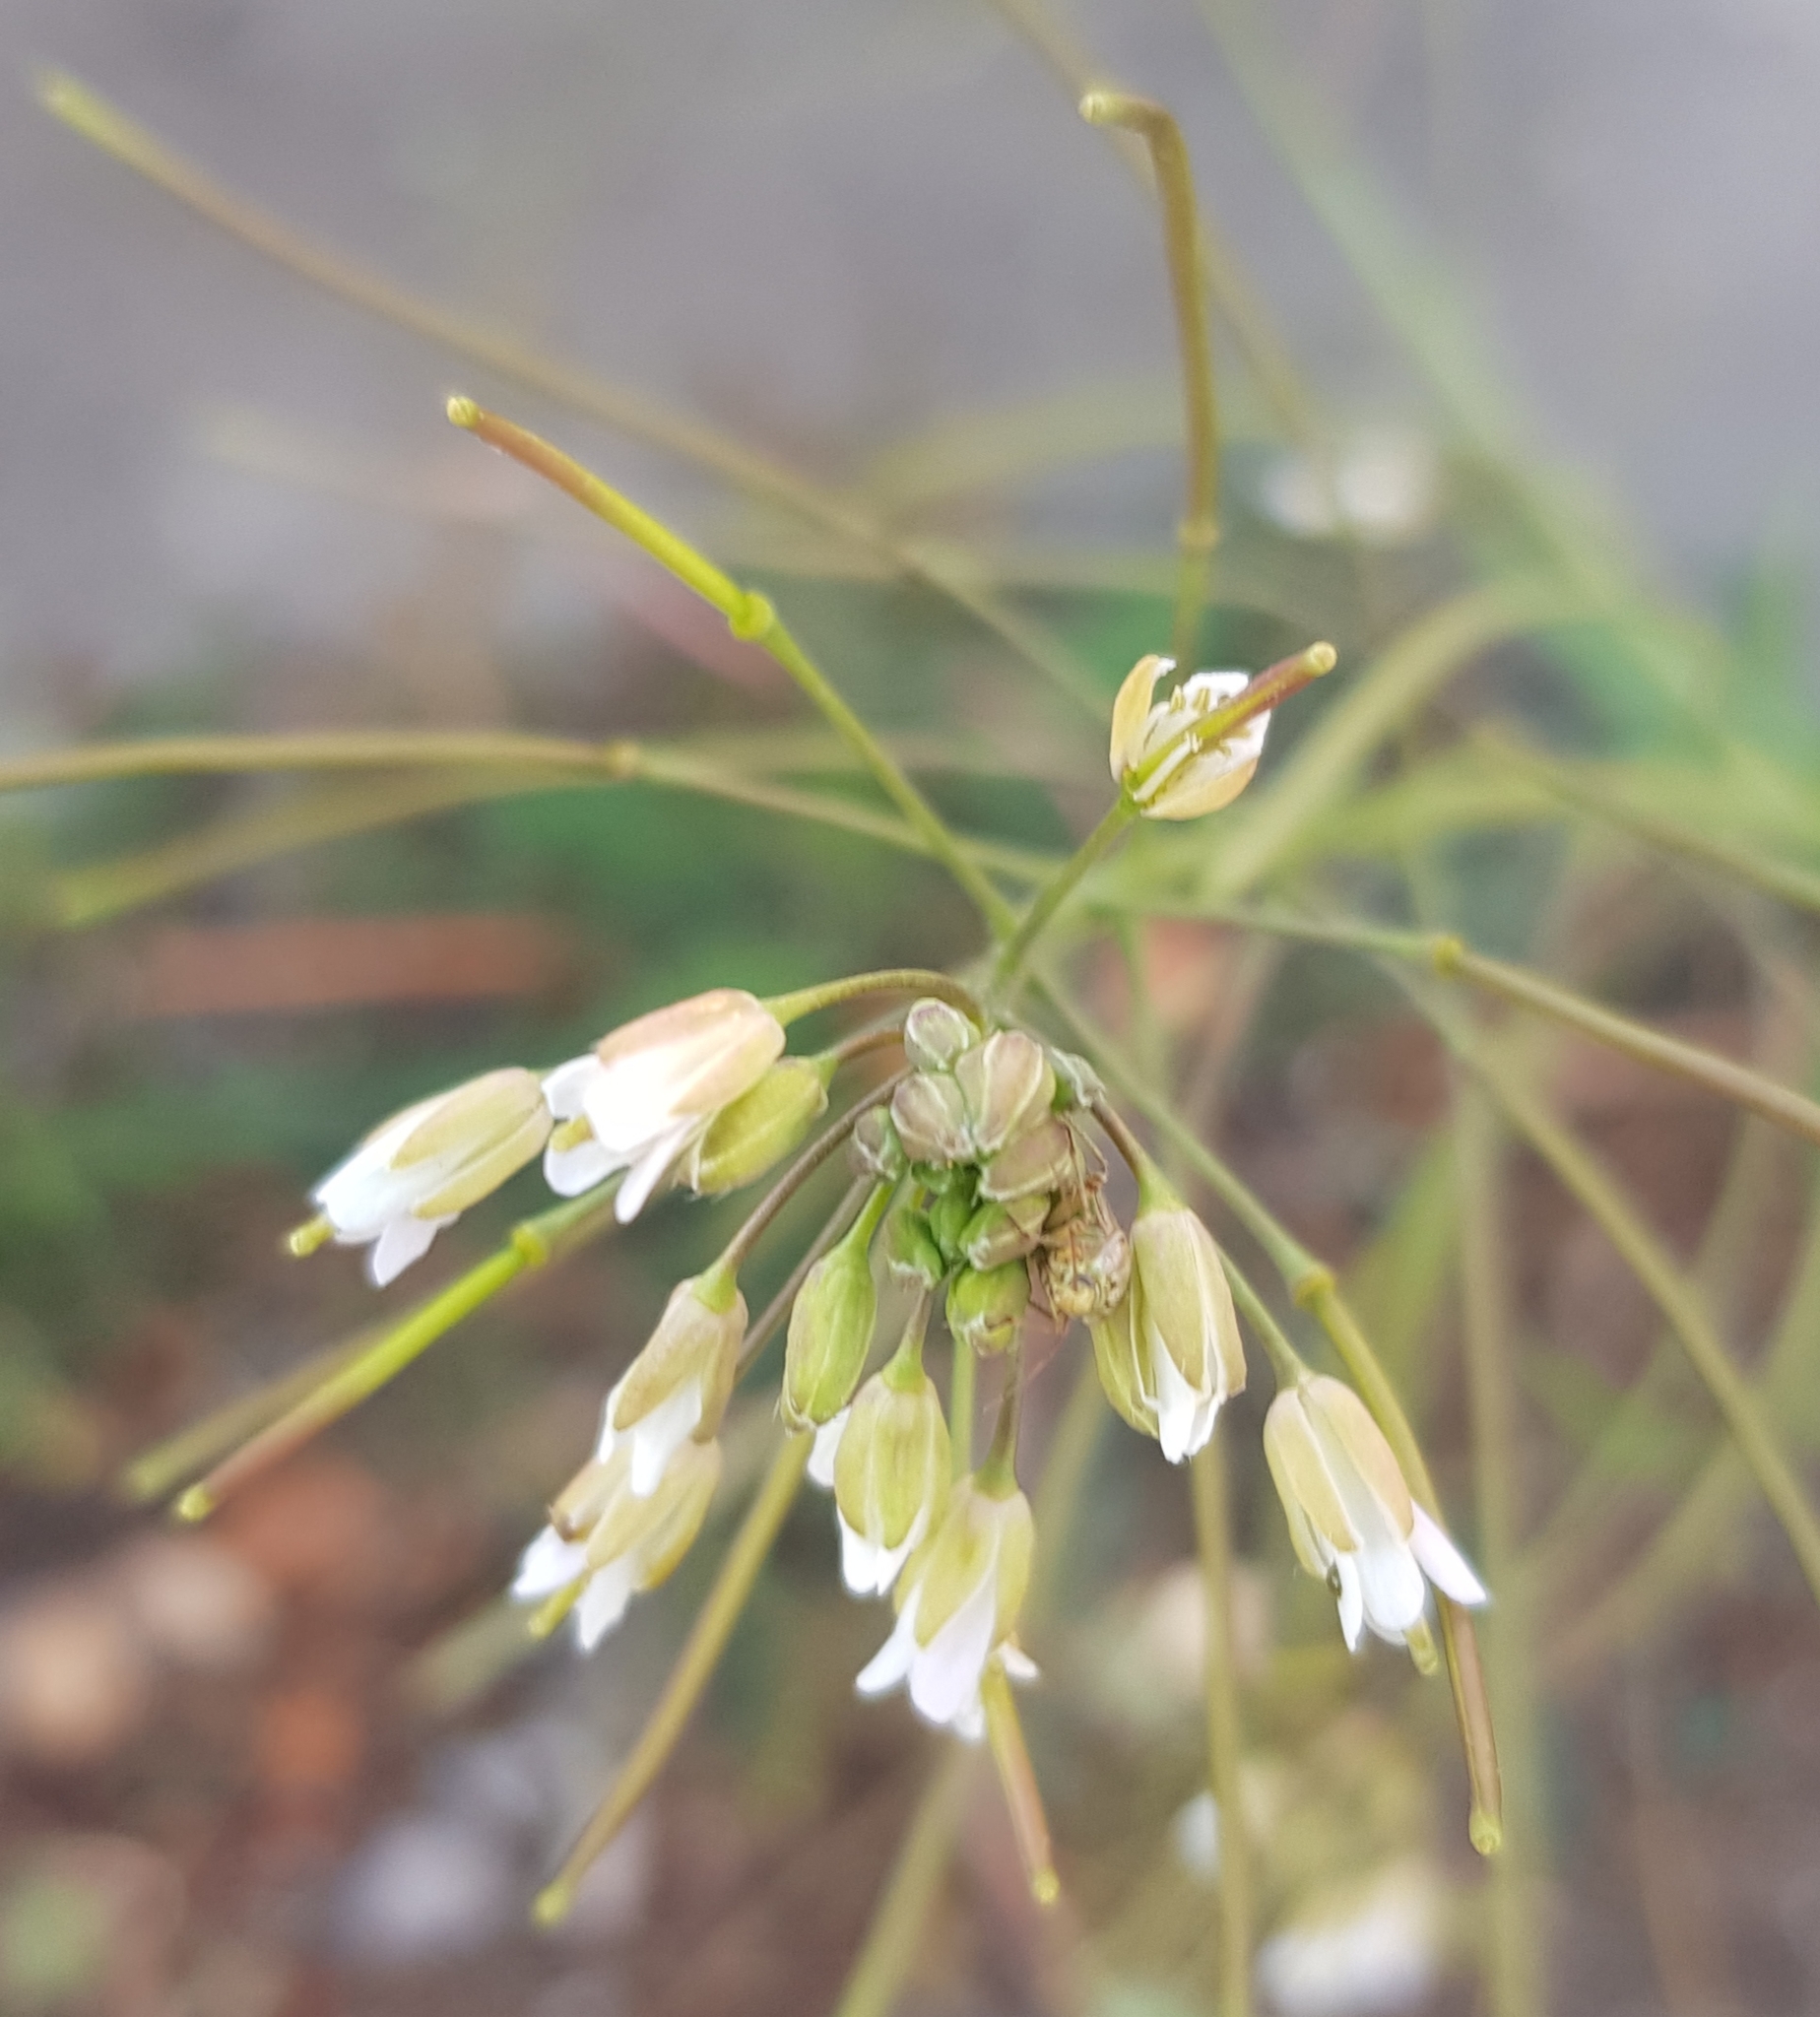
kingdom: Plantae
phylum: Tracheophyta
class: Magnoliopsida
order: Brassicales
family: Brassicaceae
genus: Catolobus
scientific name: Catolobus pendulus
